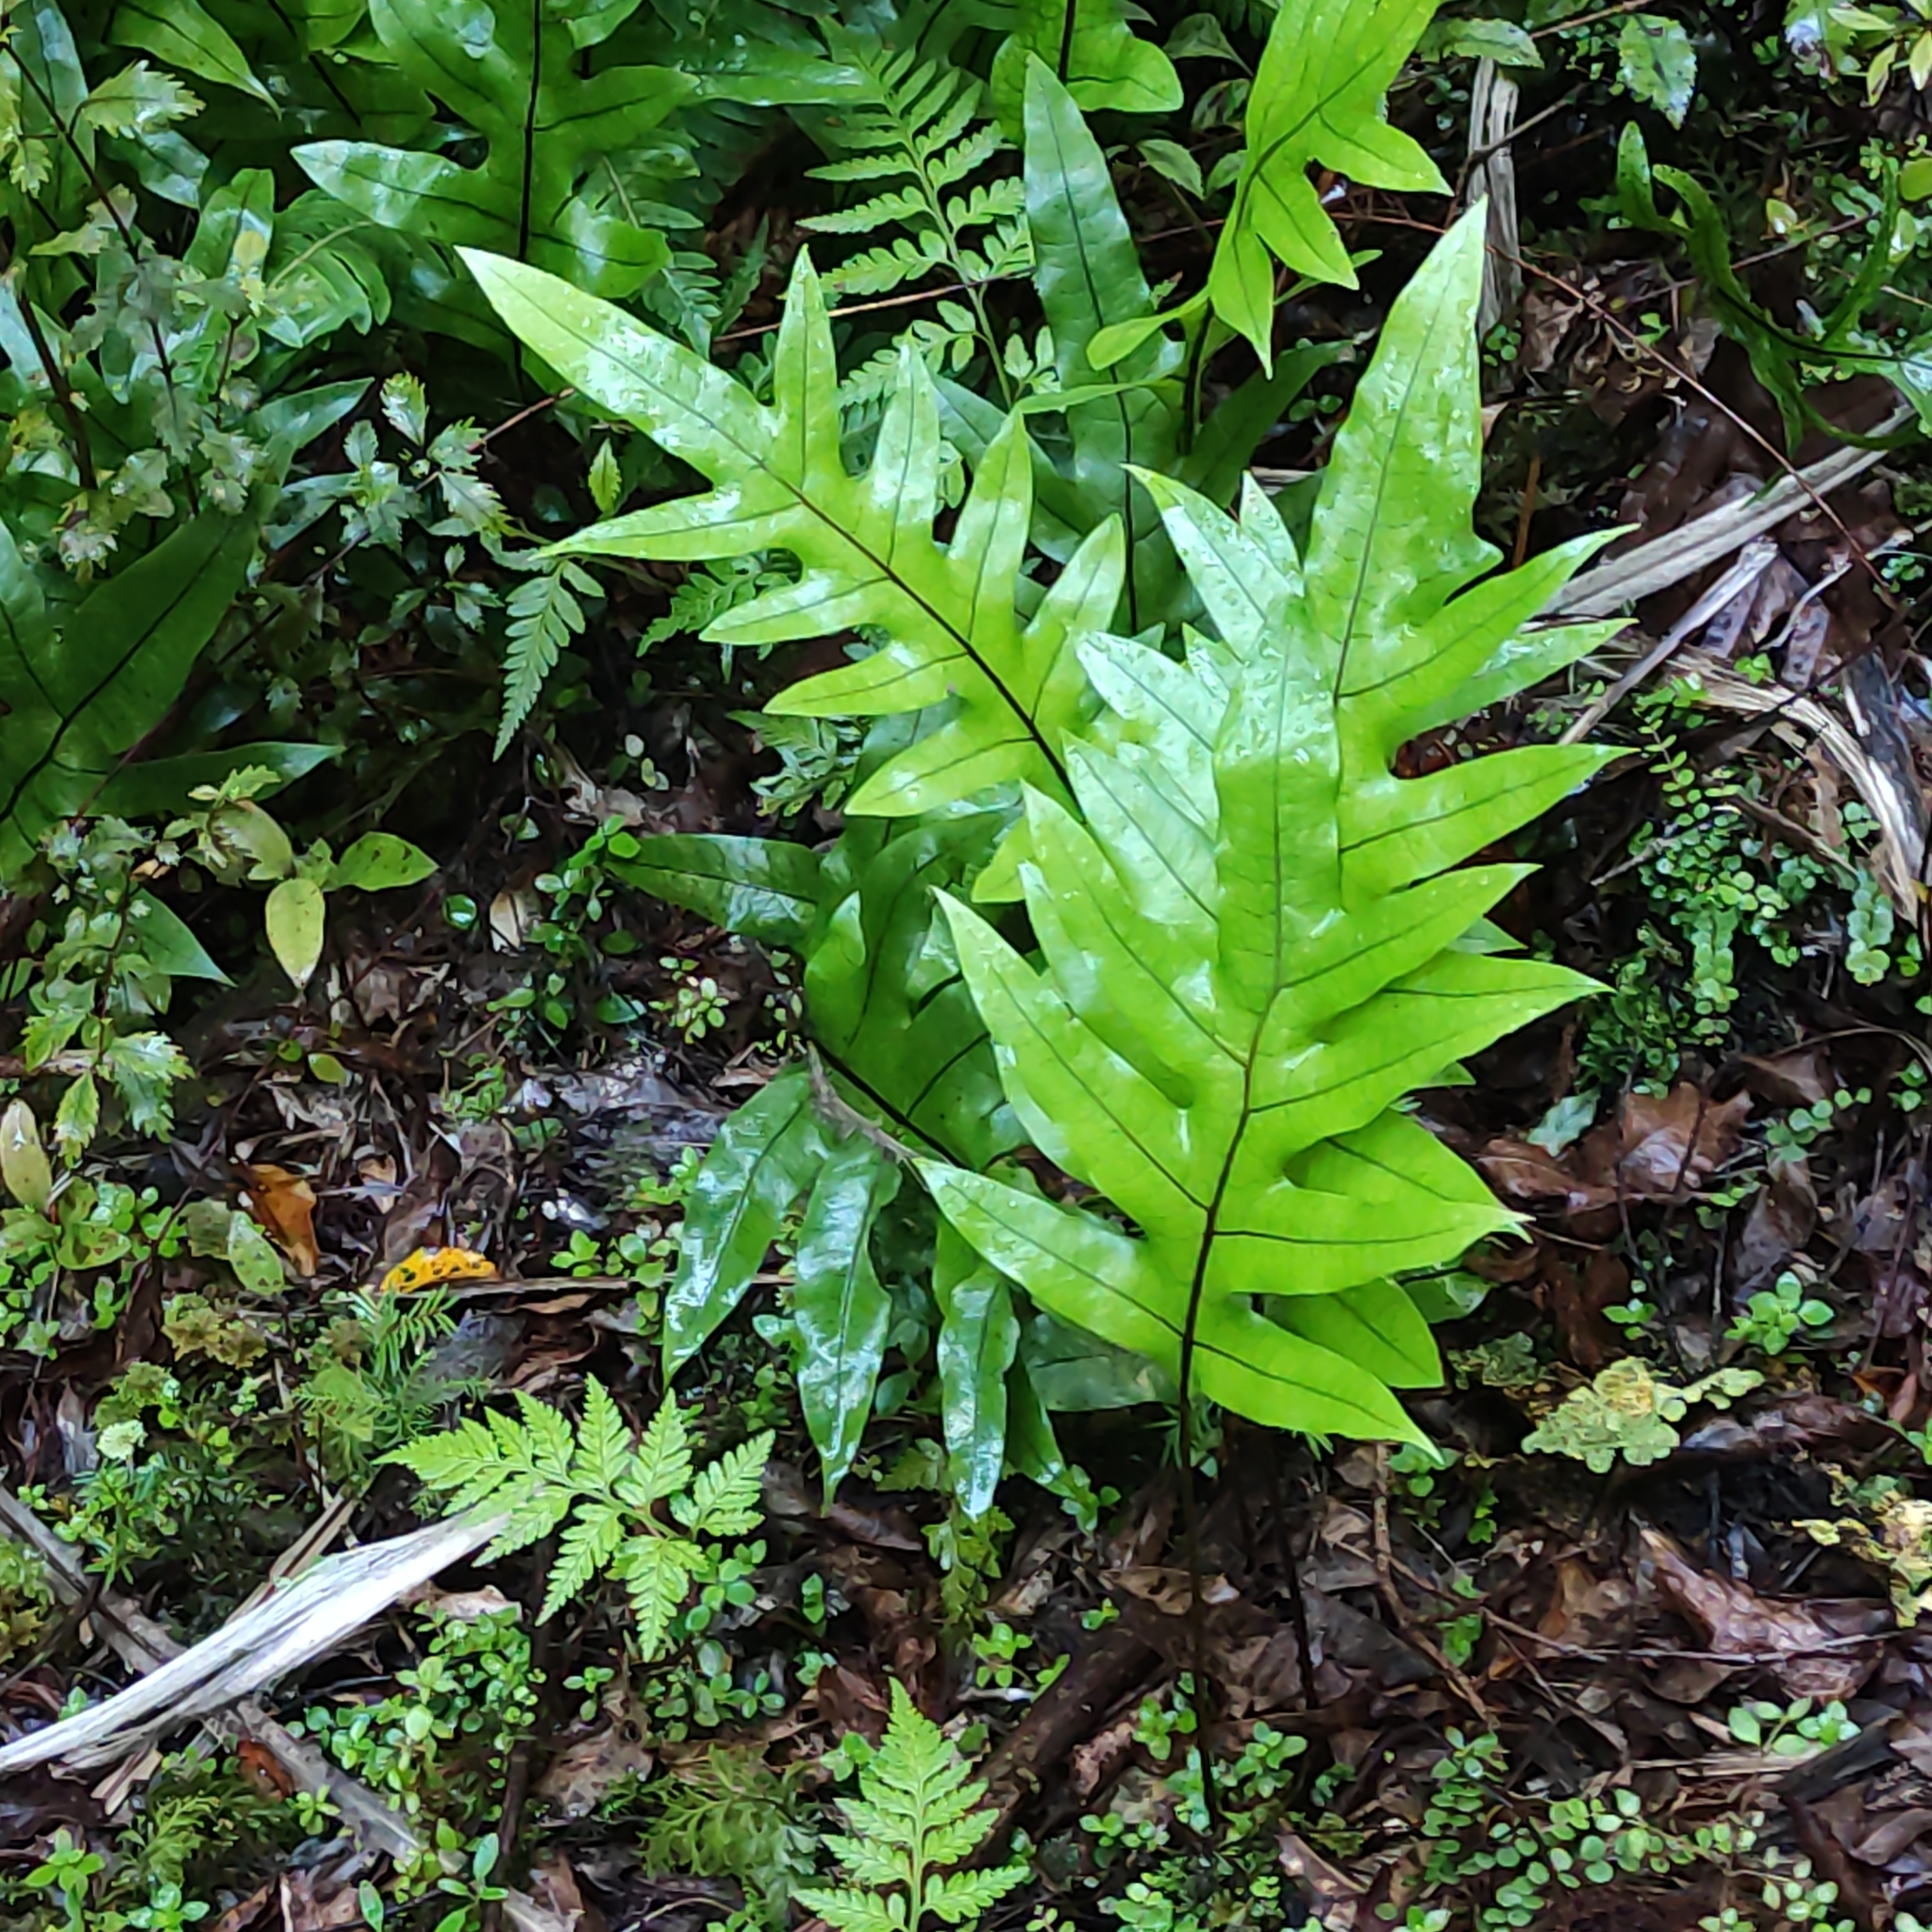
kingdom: Plantae
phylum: Tracheophyta
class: Polypodiopsida
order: Polypodiales
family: Polypodiaceae
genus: Lecanopteris
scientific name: Lecanopteris pustulata
